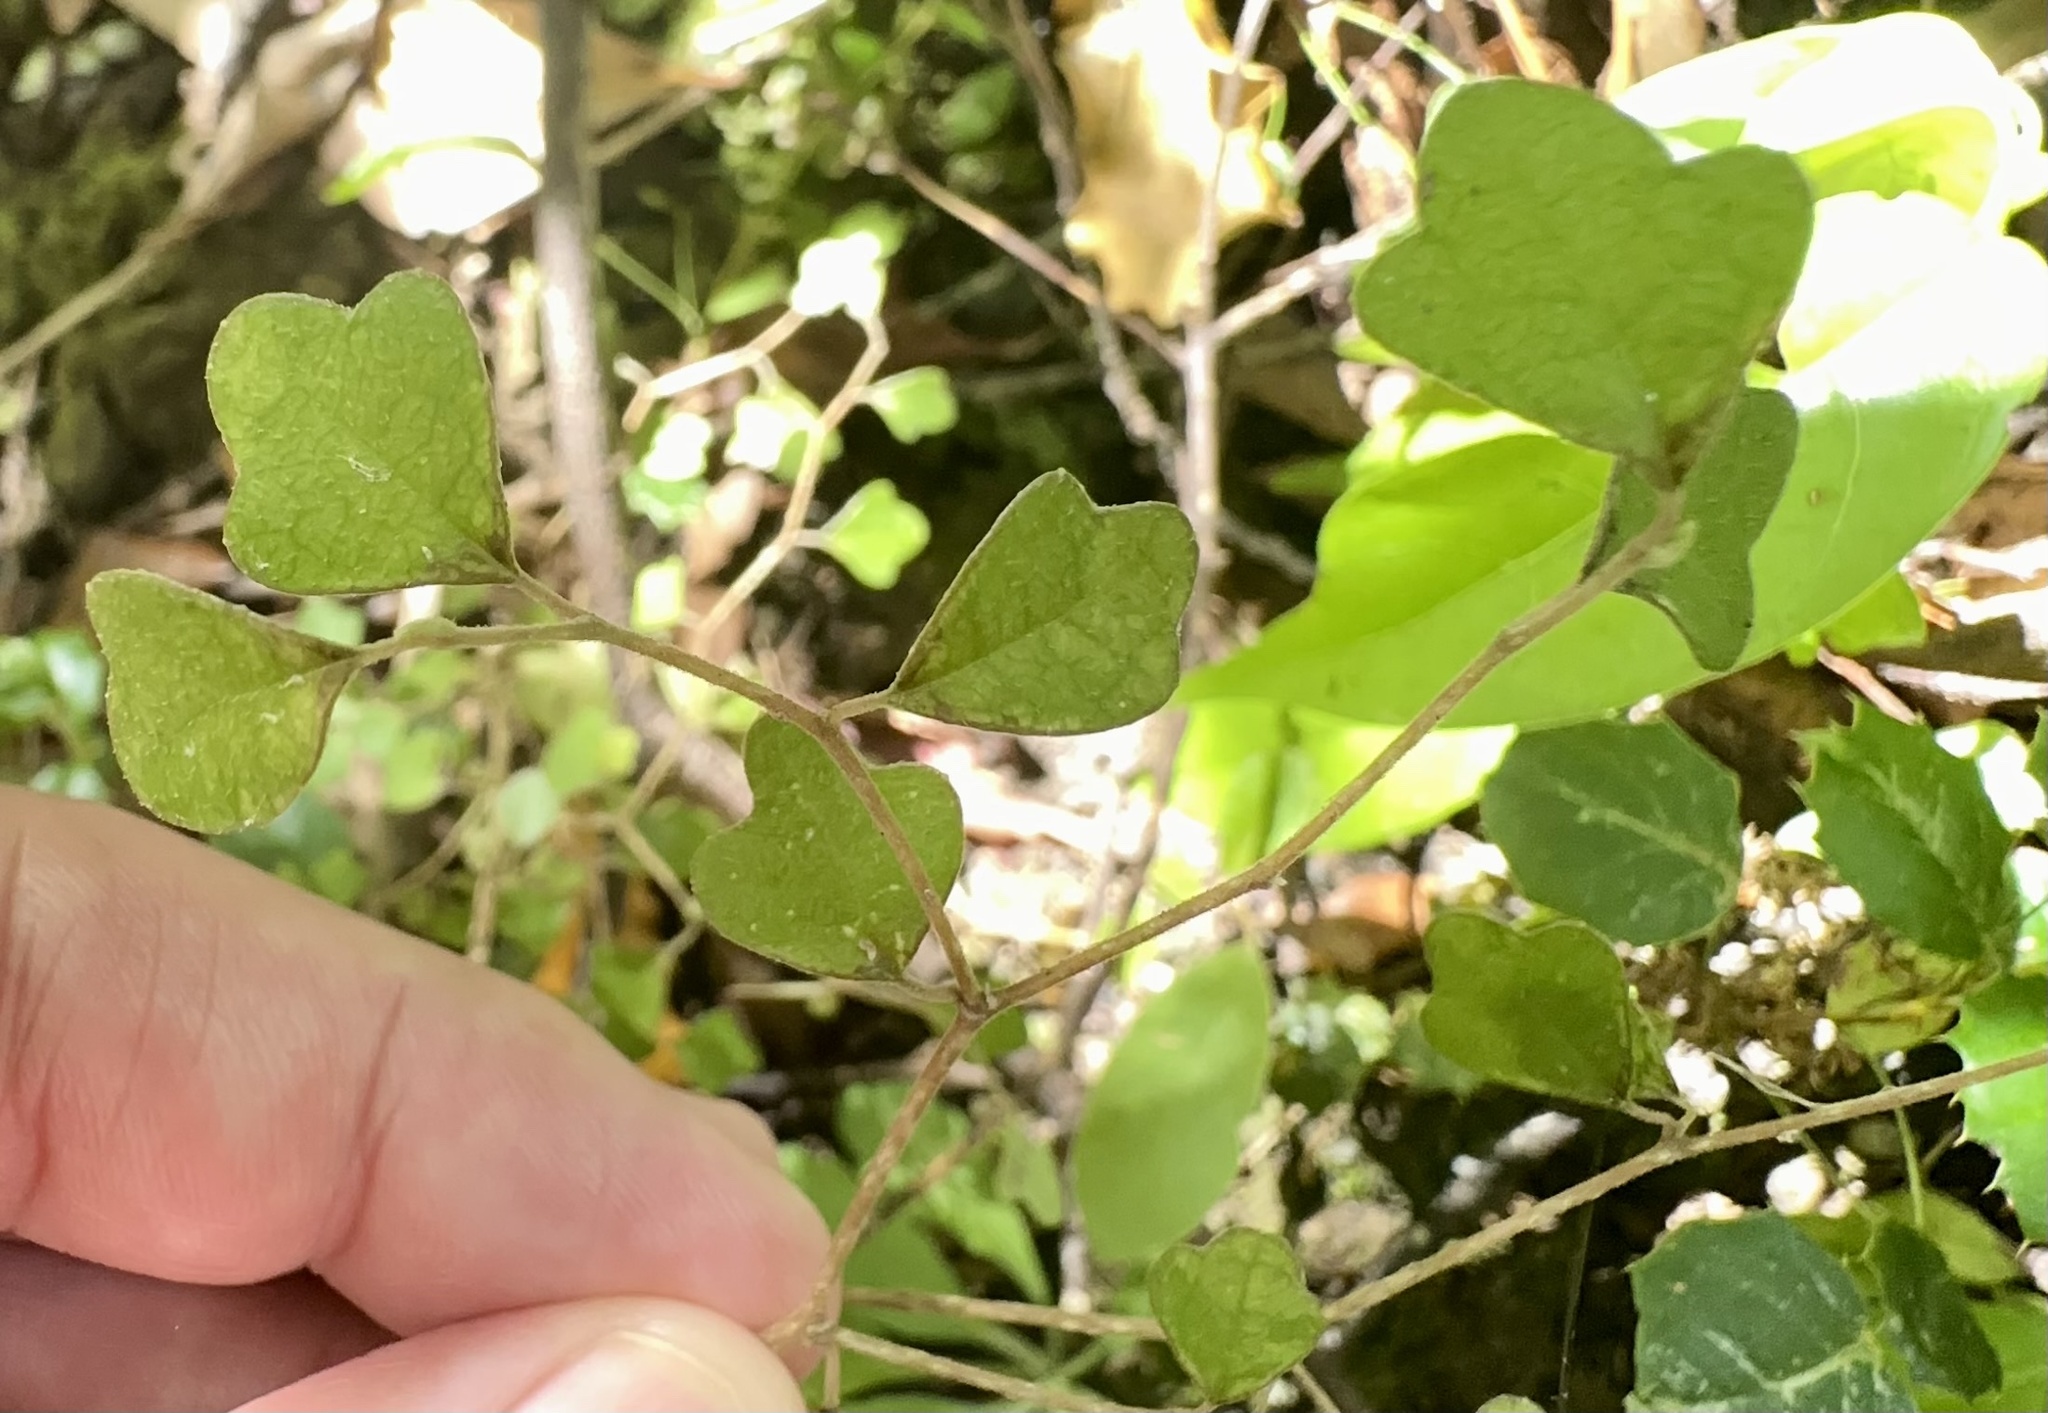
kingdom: Plantae
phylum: Tracheophyta
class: Magnoliopsida
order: Apiales
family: Pennantiaceae
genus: Pennantia
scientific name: Pennantia corymbosa
